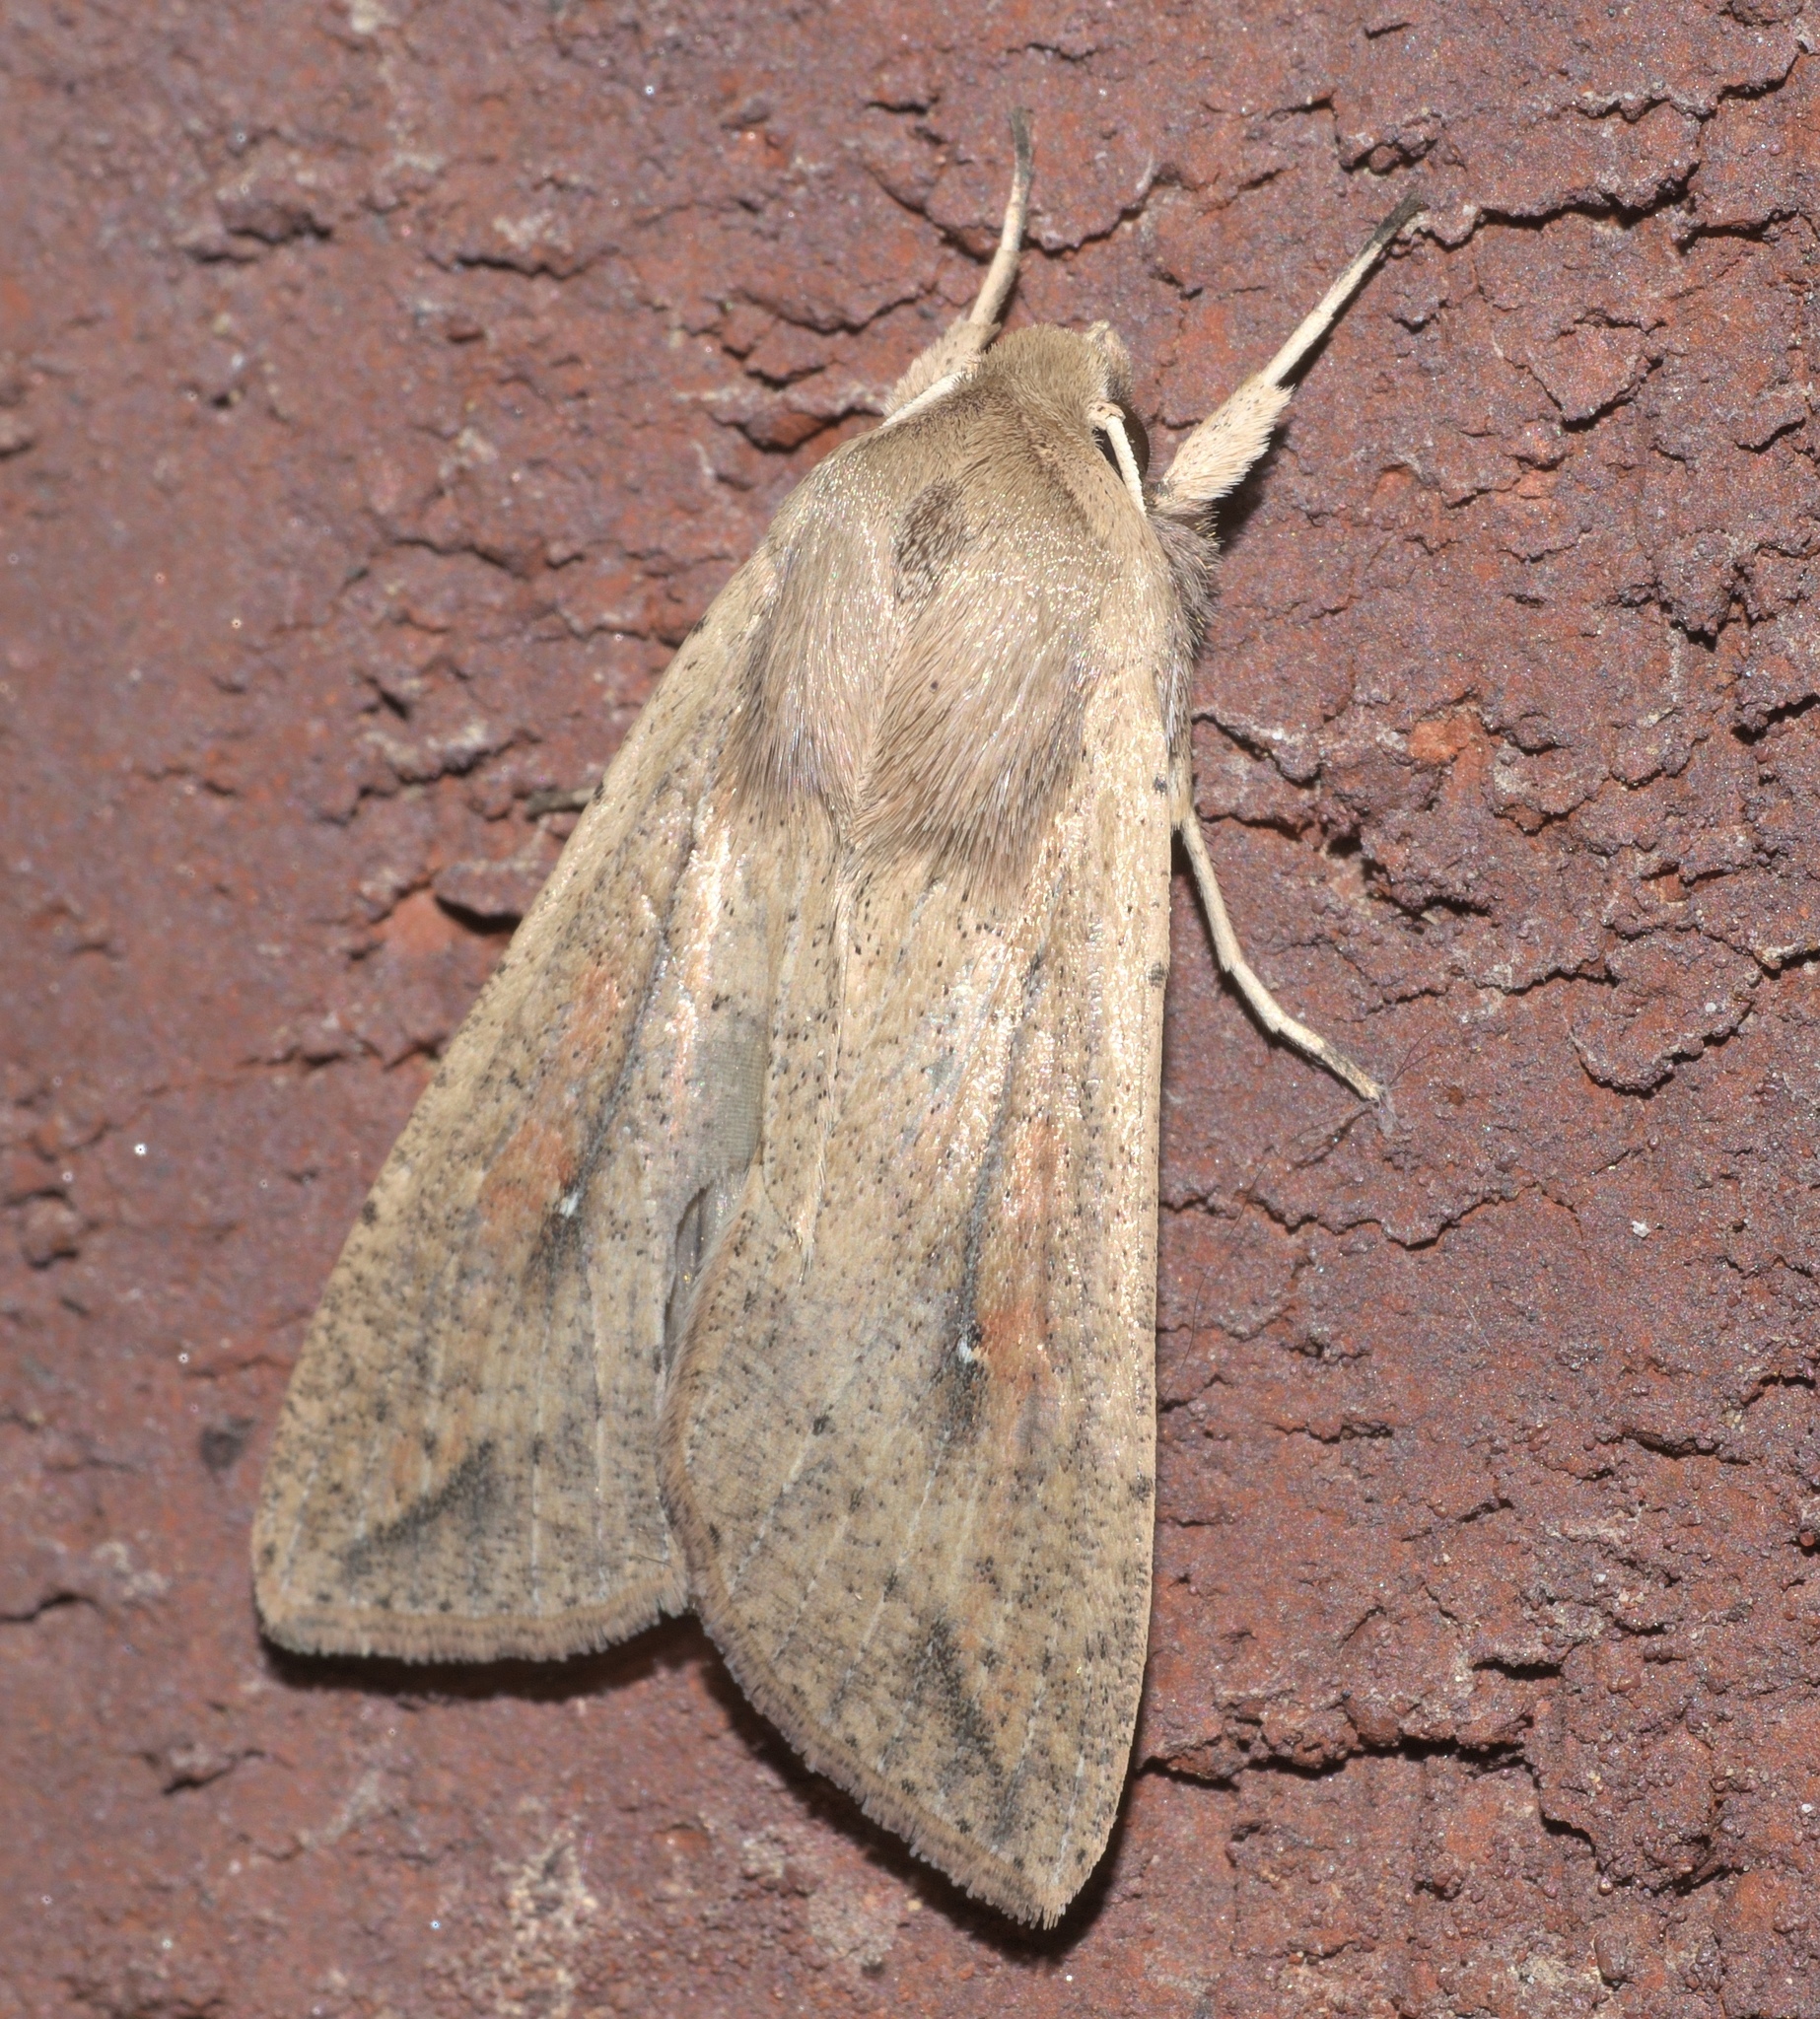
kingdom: Animalia
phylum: Arthropoda
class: Insecta
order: Lepidoptera
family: Noctuidae
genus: Mythimna
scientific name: Mythimna unipuncta
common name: White-speck
